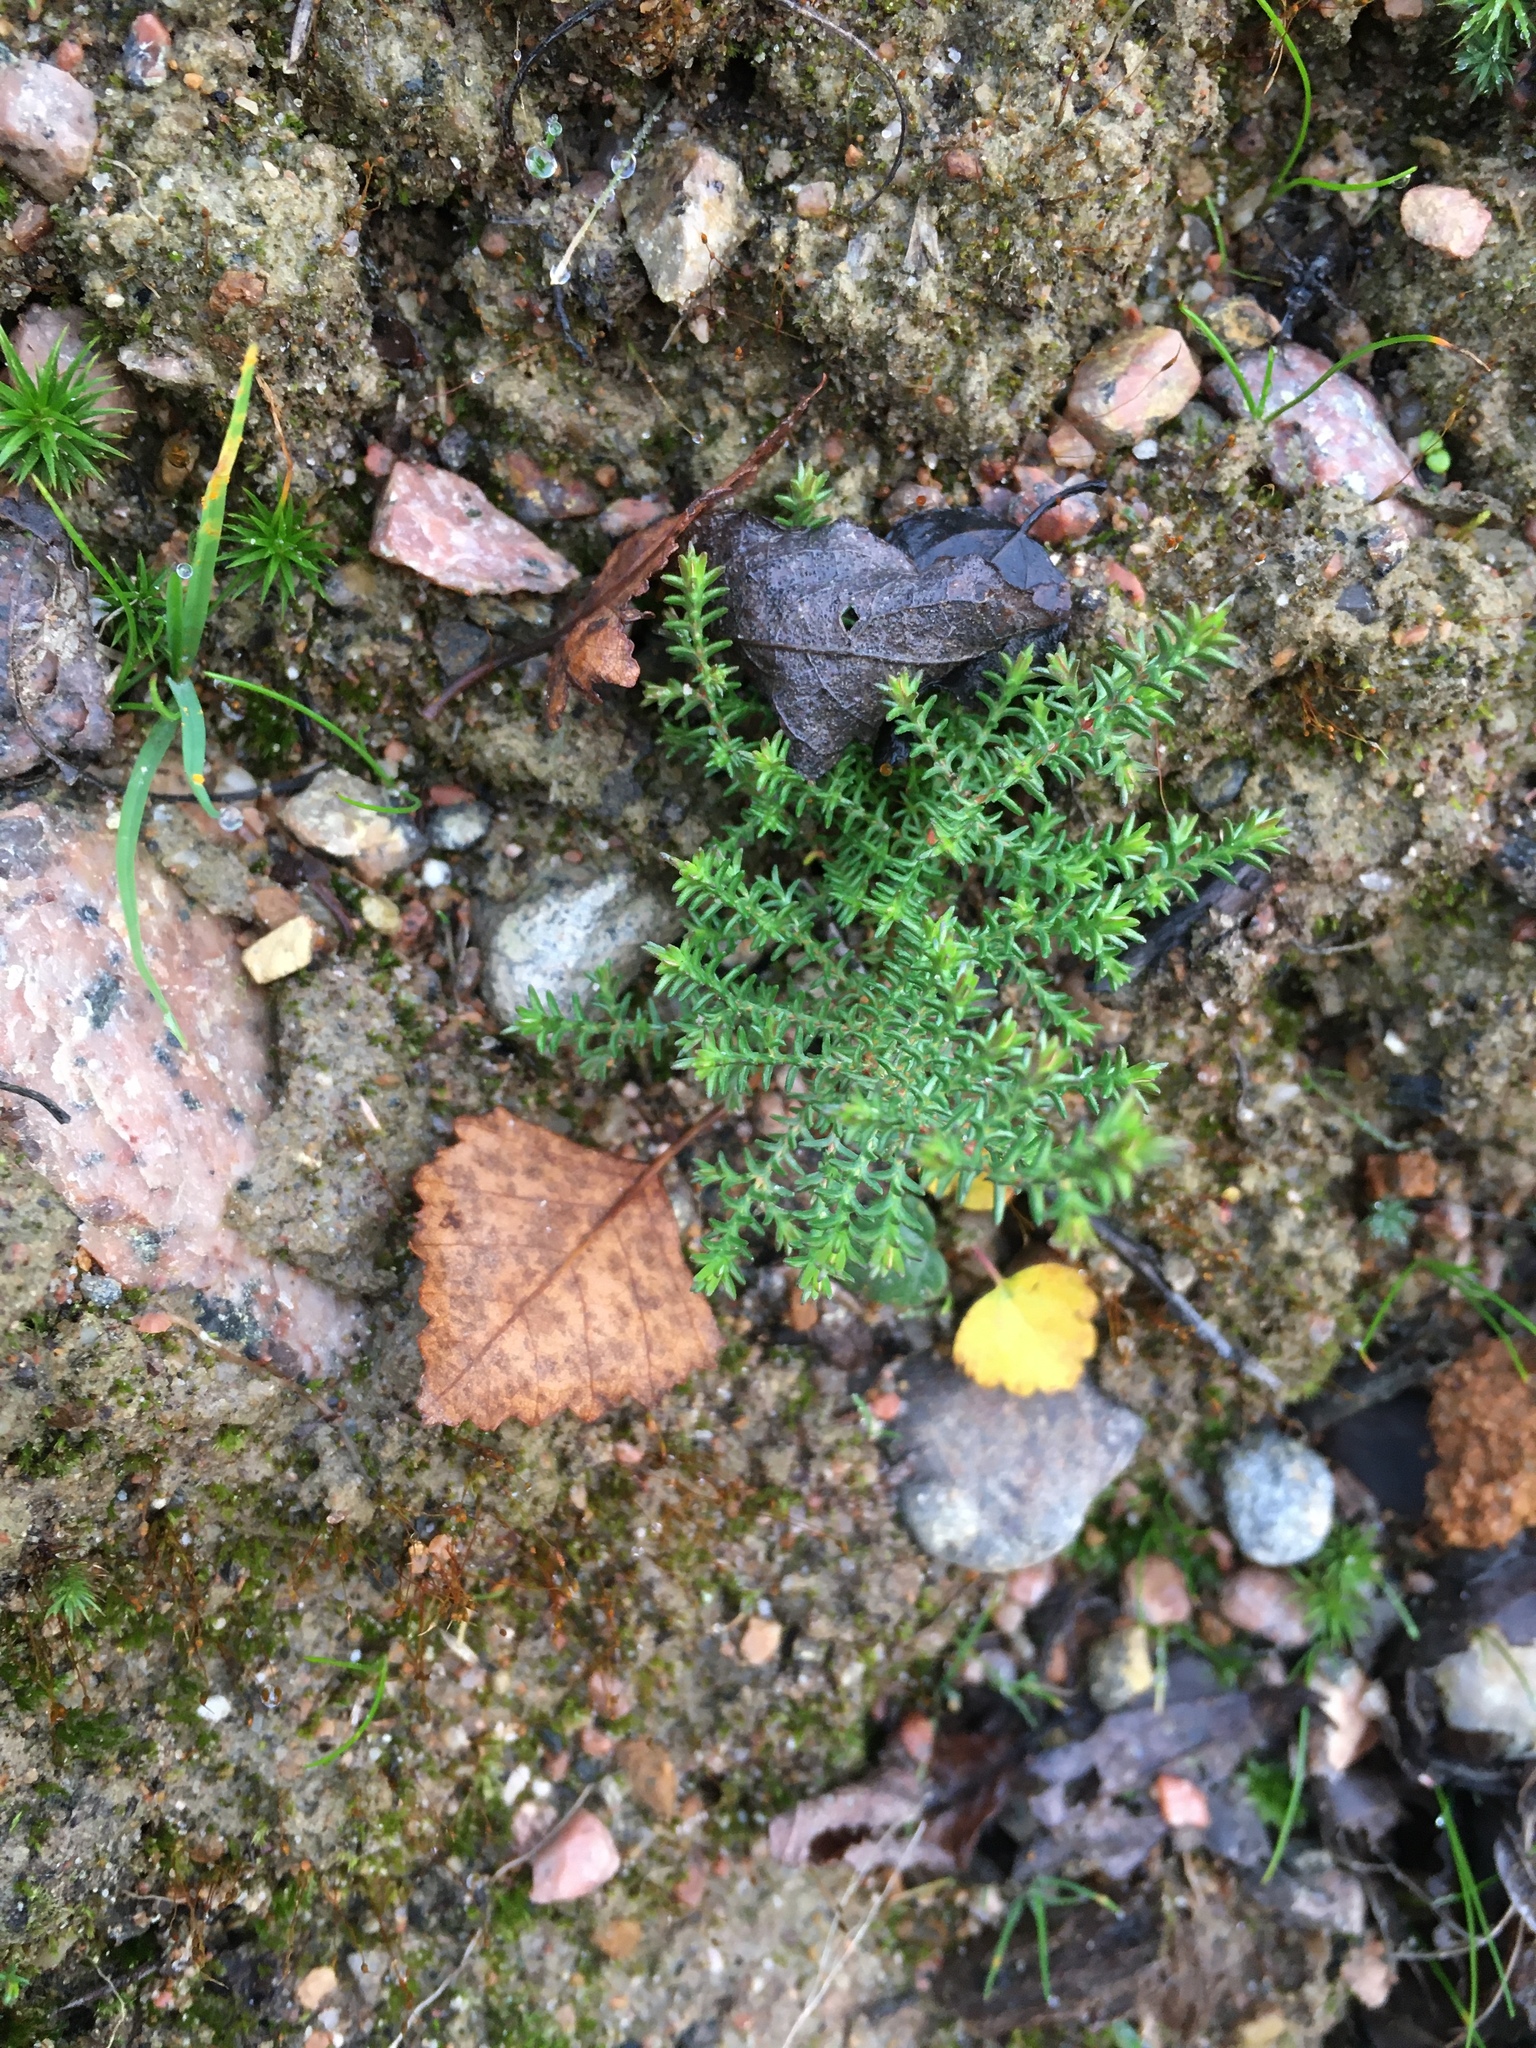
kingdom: Plantae
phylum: Tracheophyta
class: Magnoliopsida
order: Ericales
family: Ericaceae
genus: Calluna
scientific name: Calluna vulgaris
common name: Heather
